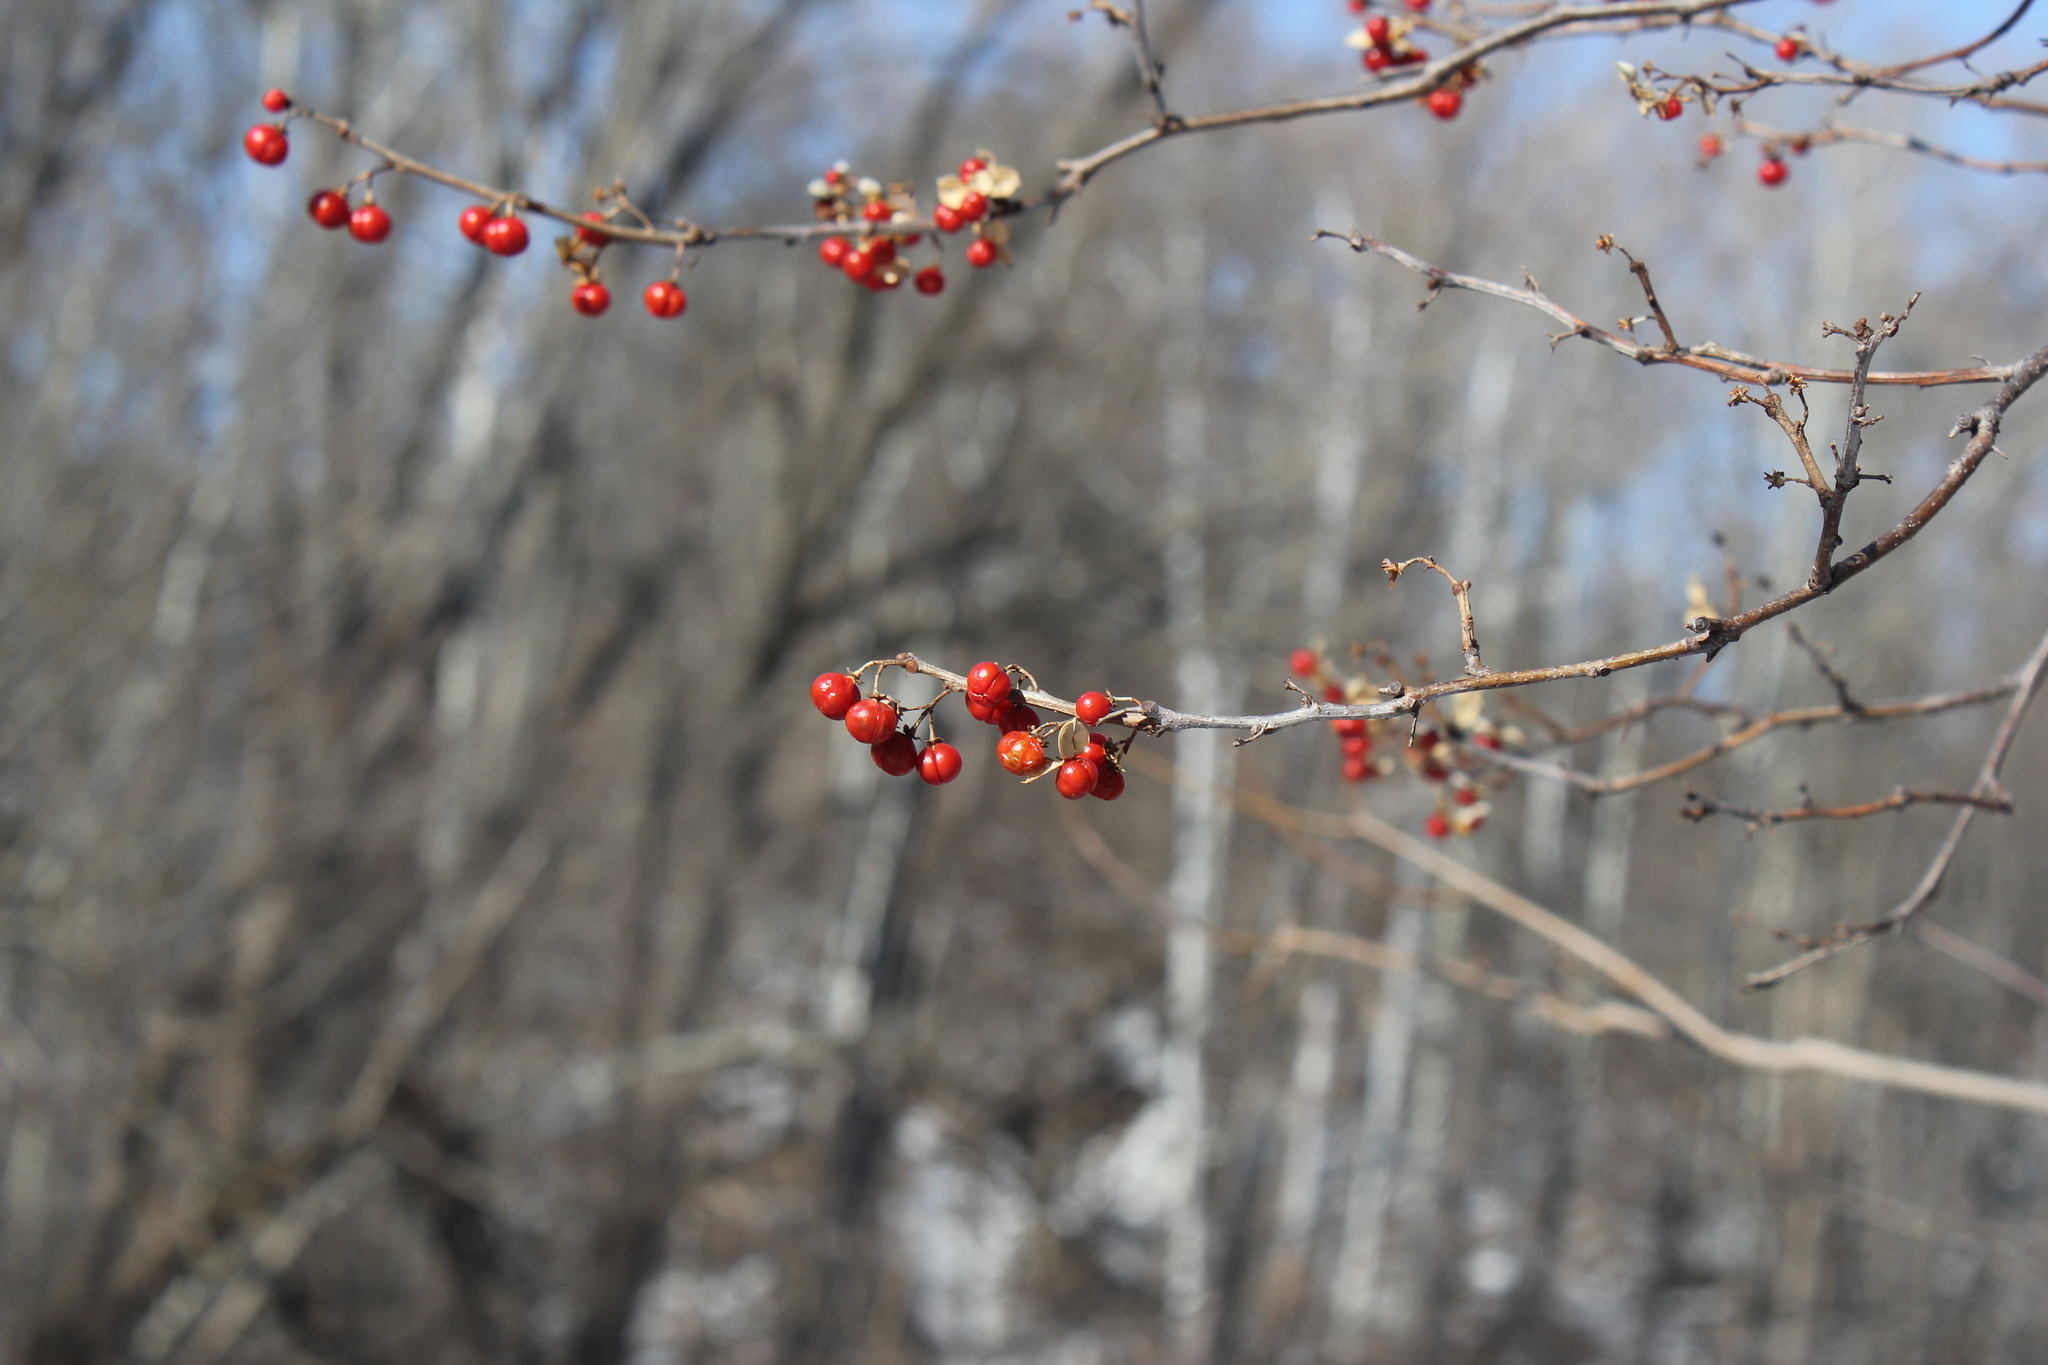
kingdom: Plantae
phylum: Tracheophyta
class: Magnoliopsida
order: Celastrales
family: Celastraceae
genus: Celastrus
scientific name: Celastrus orbiculatus
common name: Oriental bittersweet
